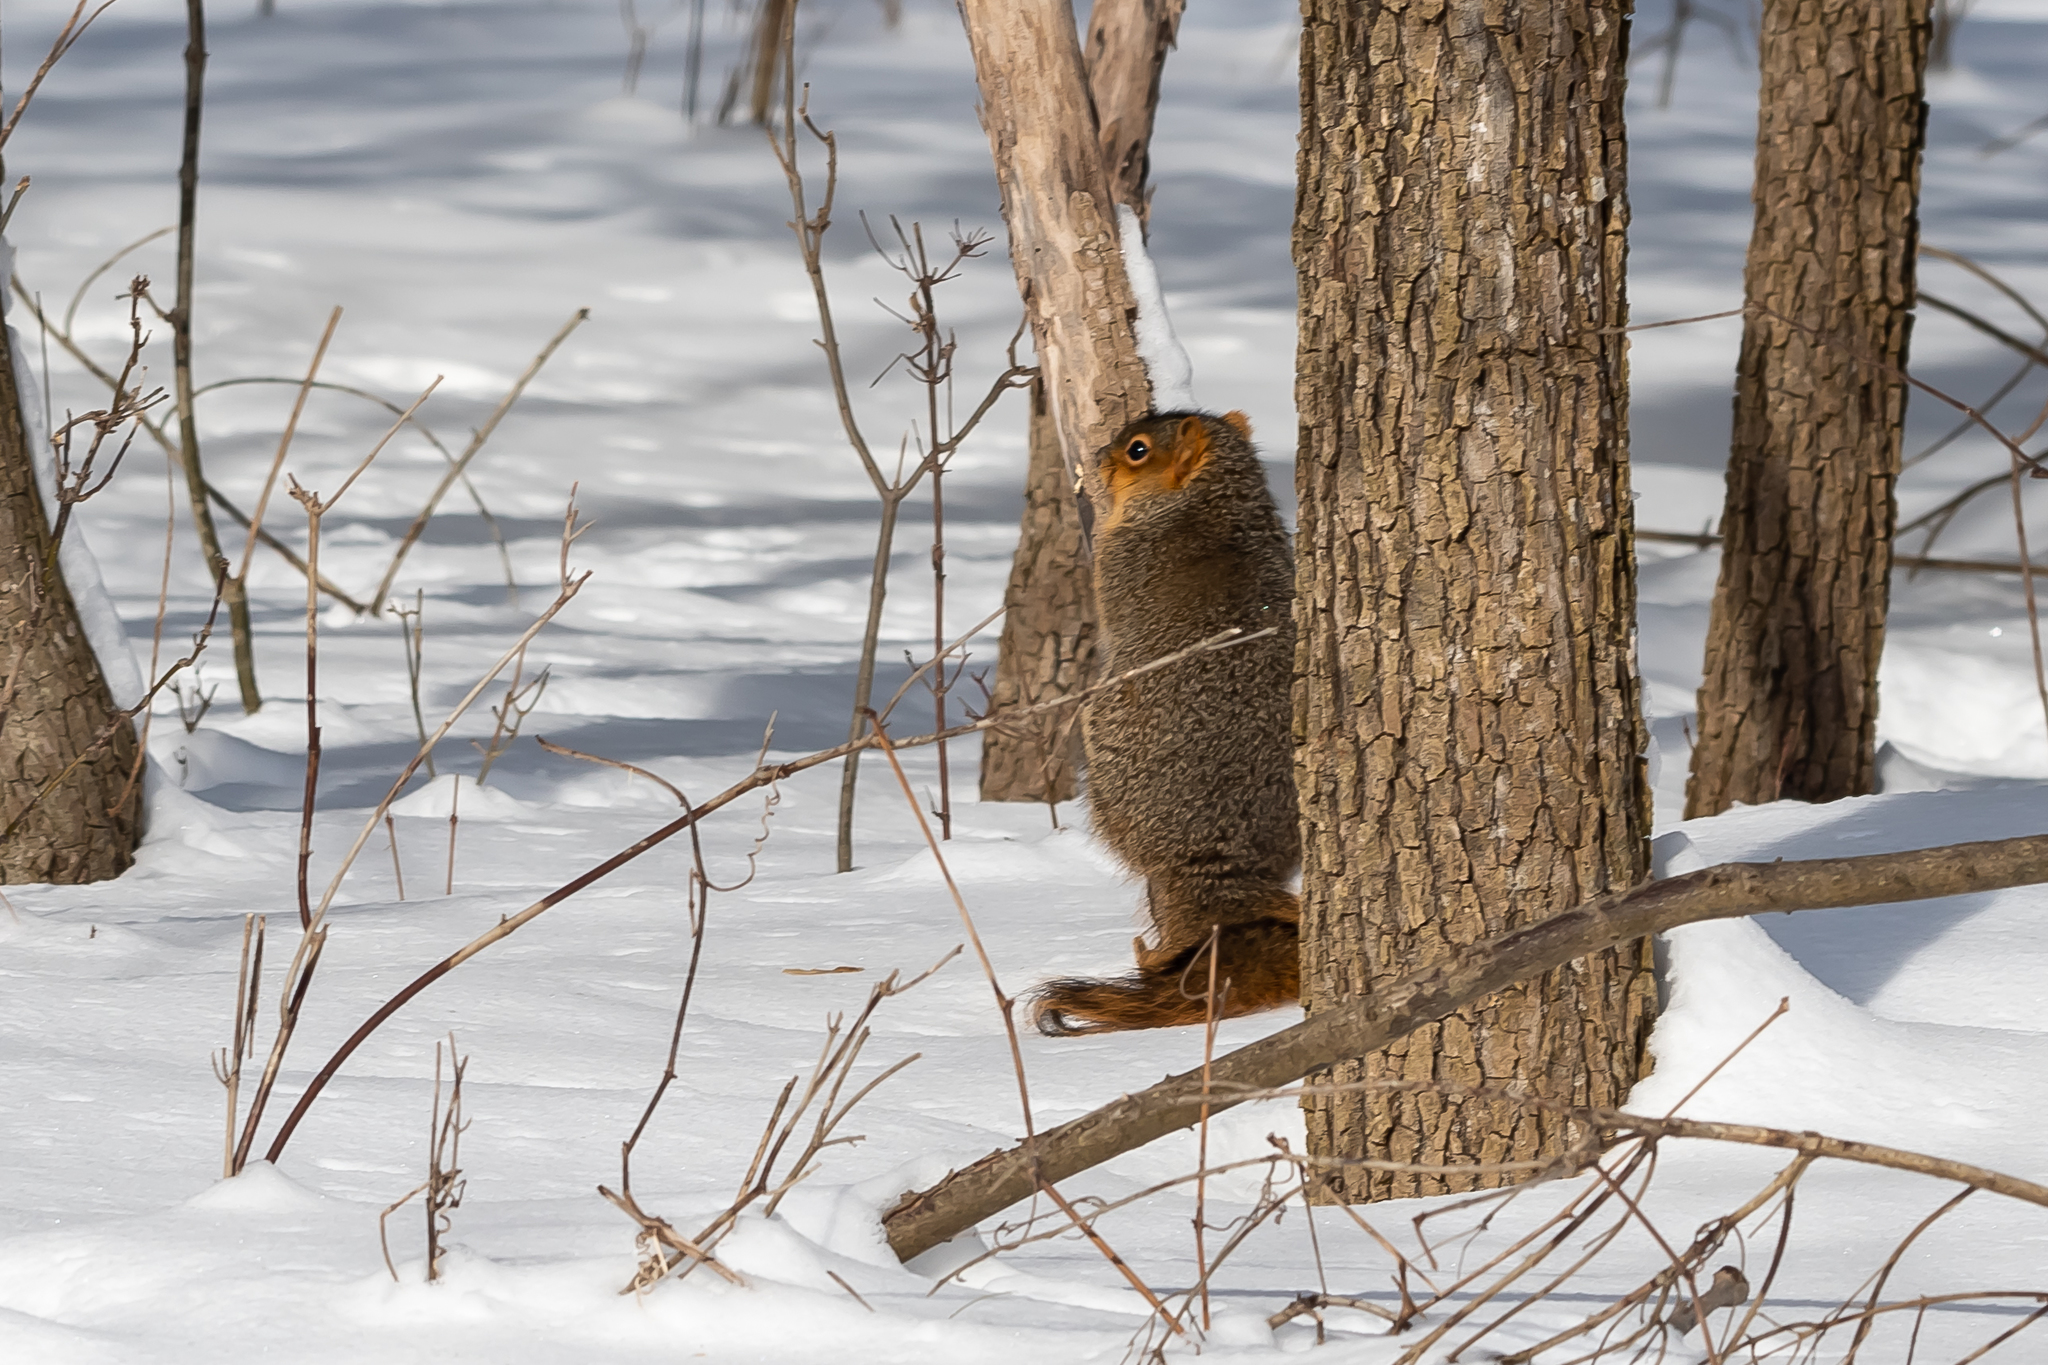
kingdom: Animalia
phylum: Chordata
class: Mammalia
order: Rodentia
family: Sciuridae
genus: Sciurus
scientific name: Sciurus niger
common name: Fox squirrel
